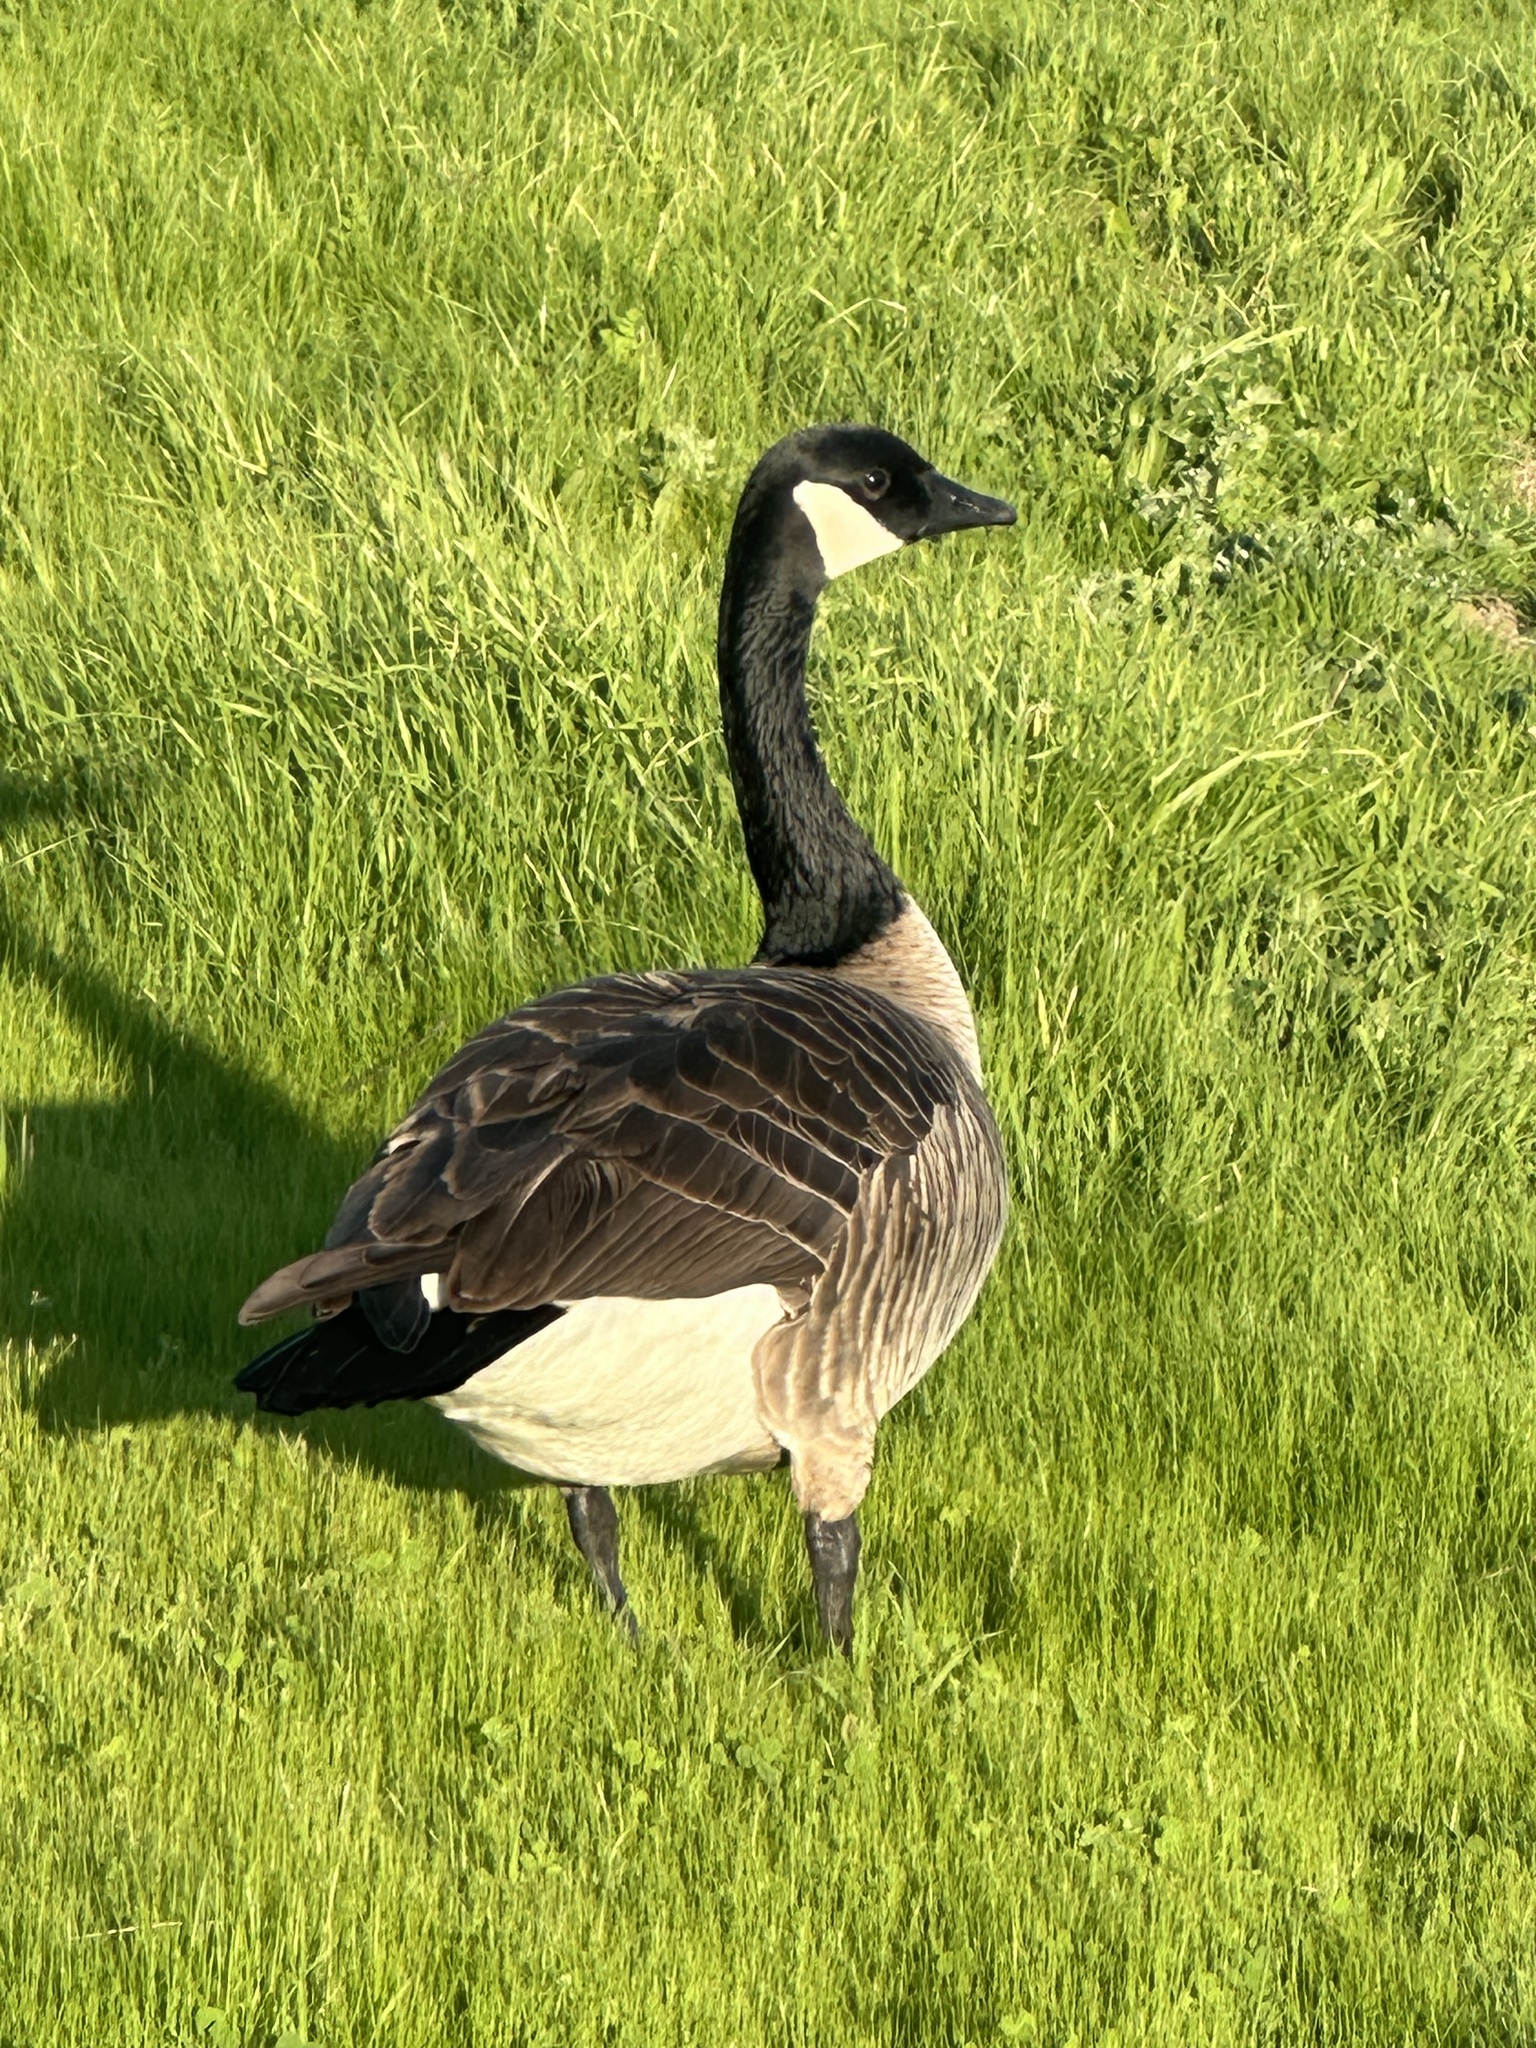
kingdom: Animalia
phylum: Chordata
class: Aves
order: Anseriformes
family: Anatidae
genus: Branta
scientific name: Branta canadensis
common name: Canada goose
